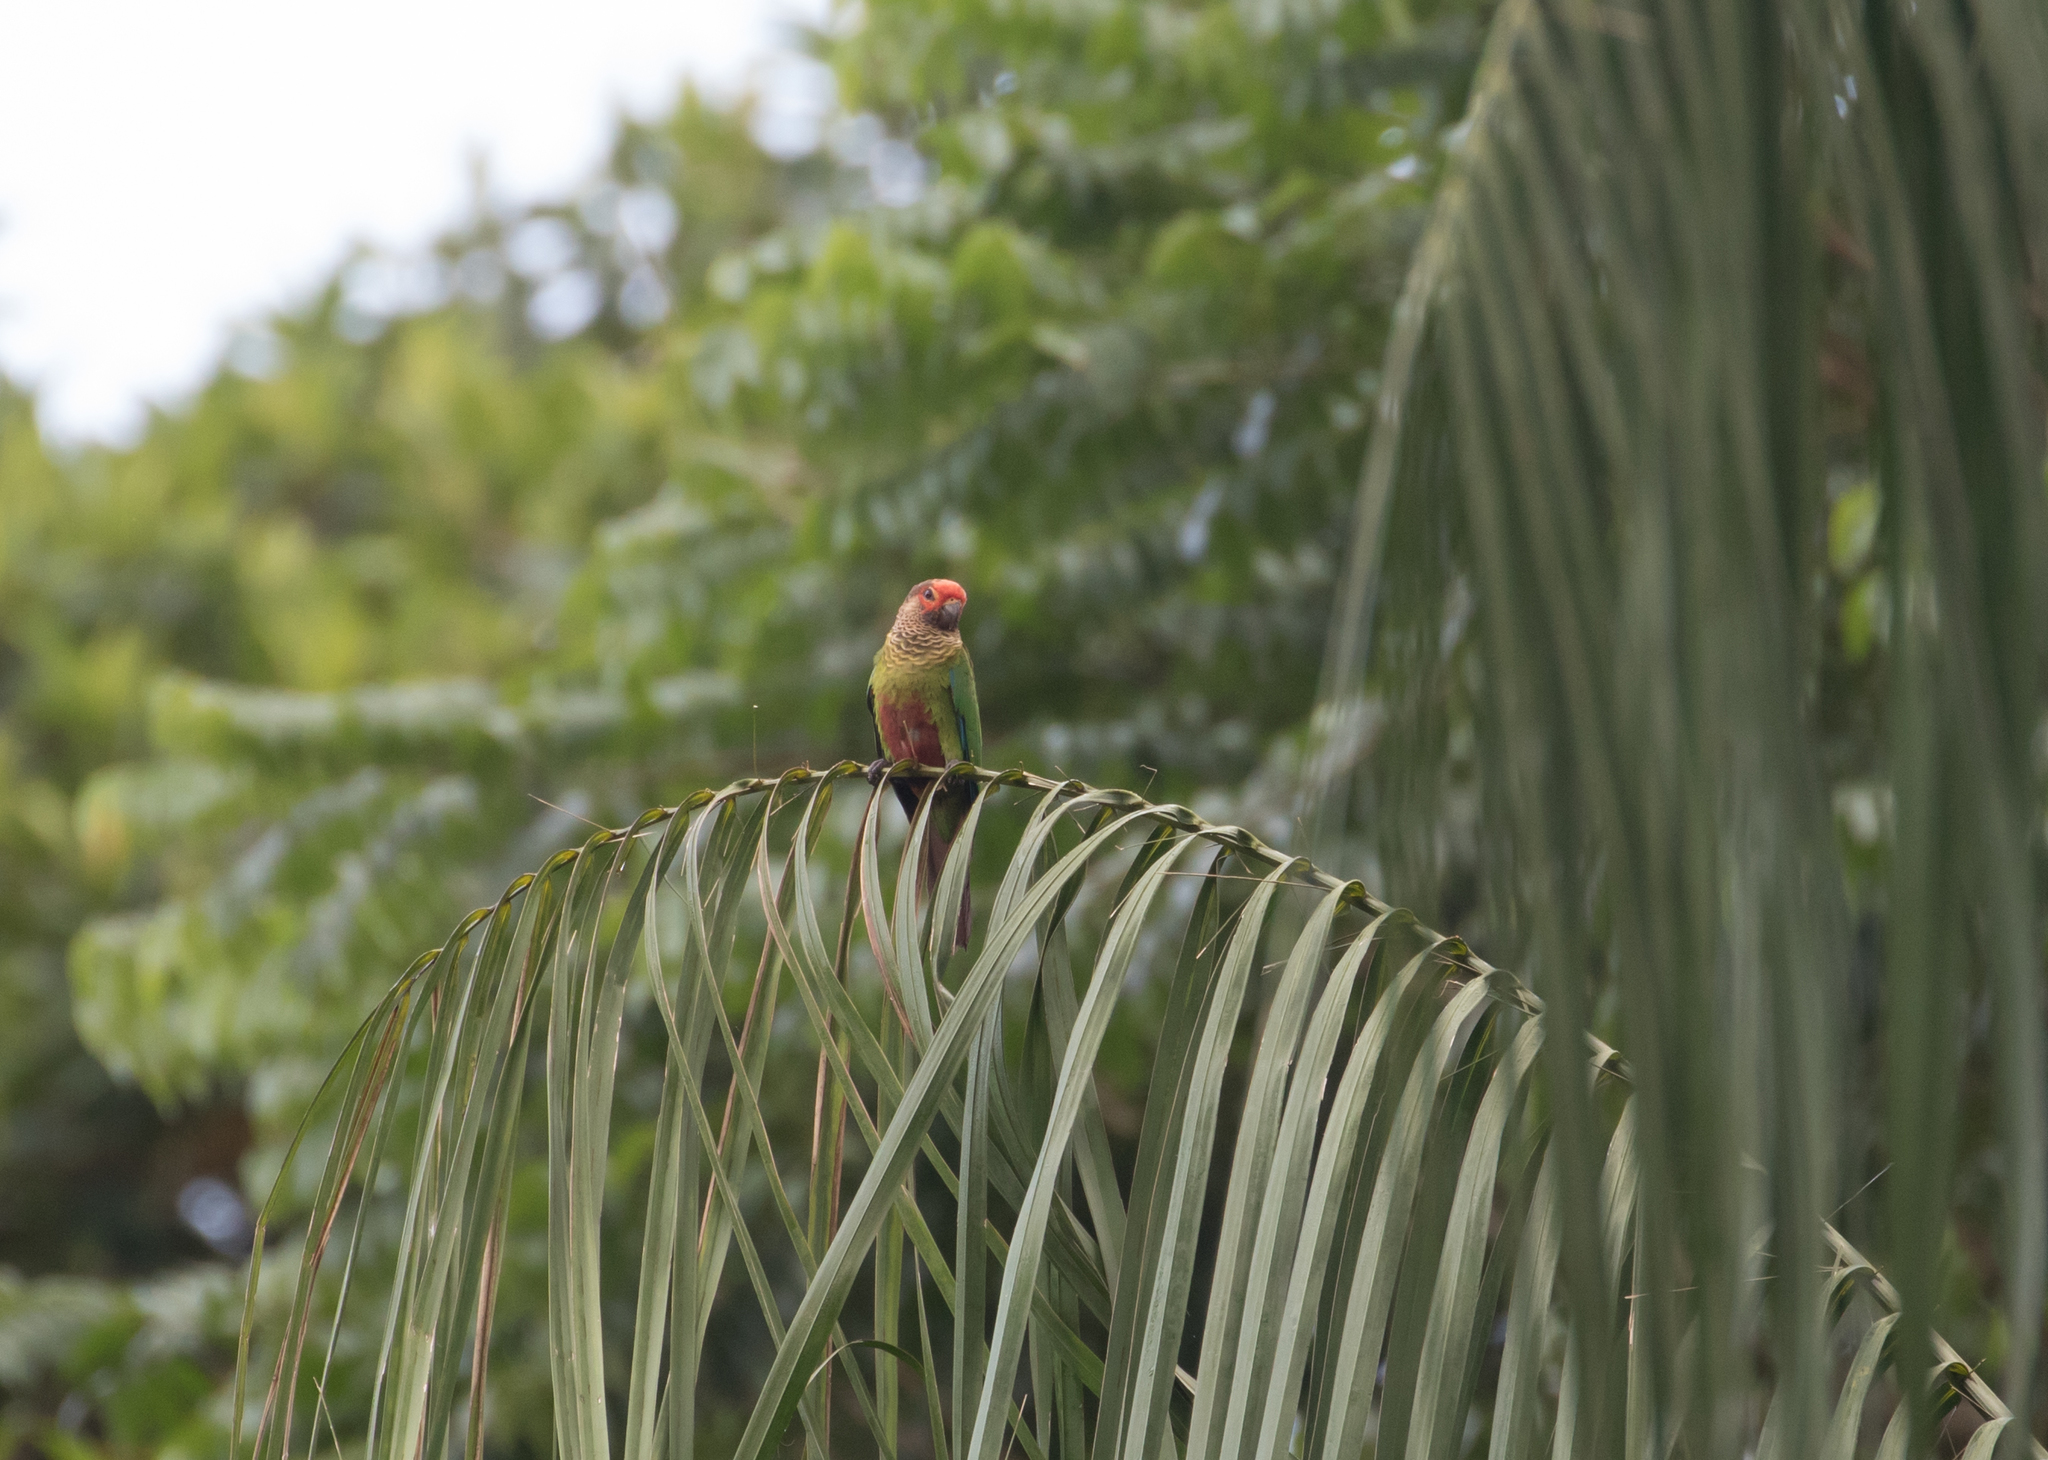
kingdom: Animalia
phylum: Chordata
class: Aves
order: Psittaciformes
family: Psittacidae
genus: Pyrrhura
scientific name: Pyrrhura picta
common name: Painted parakeet
